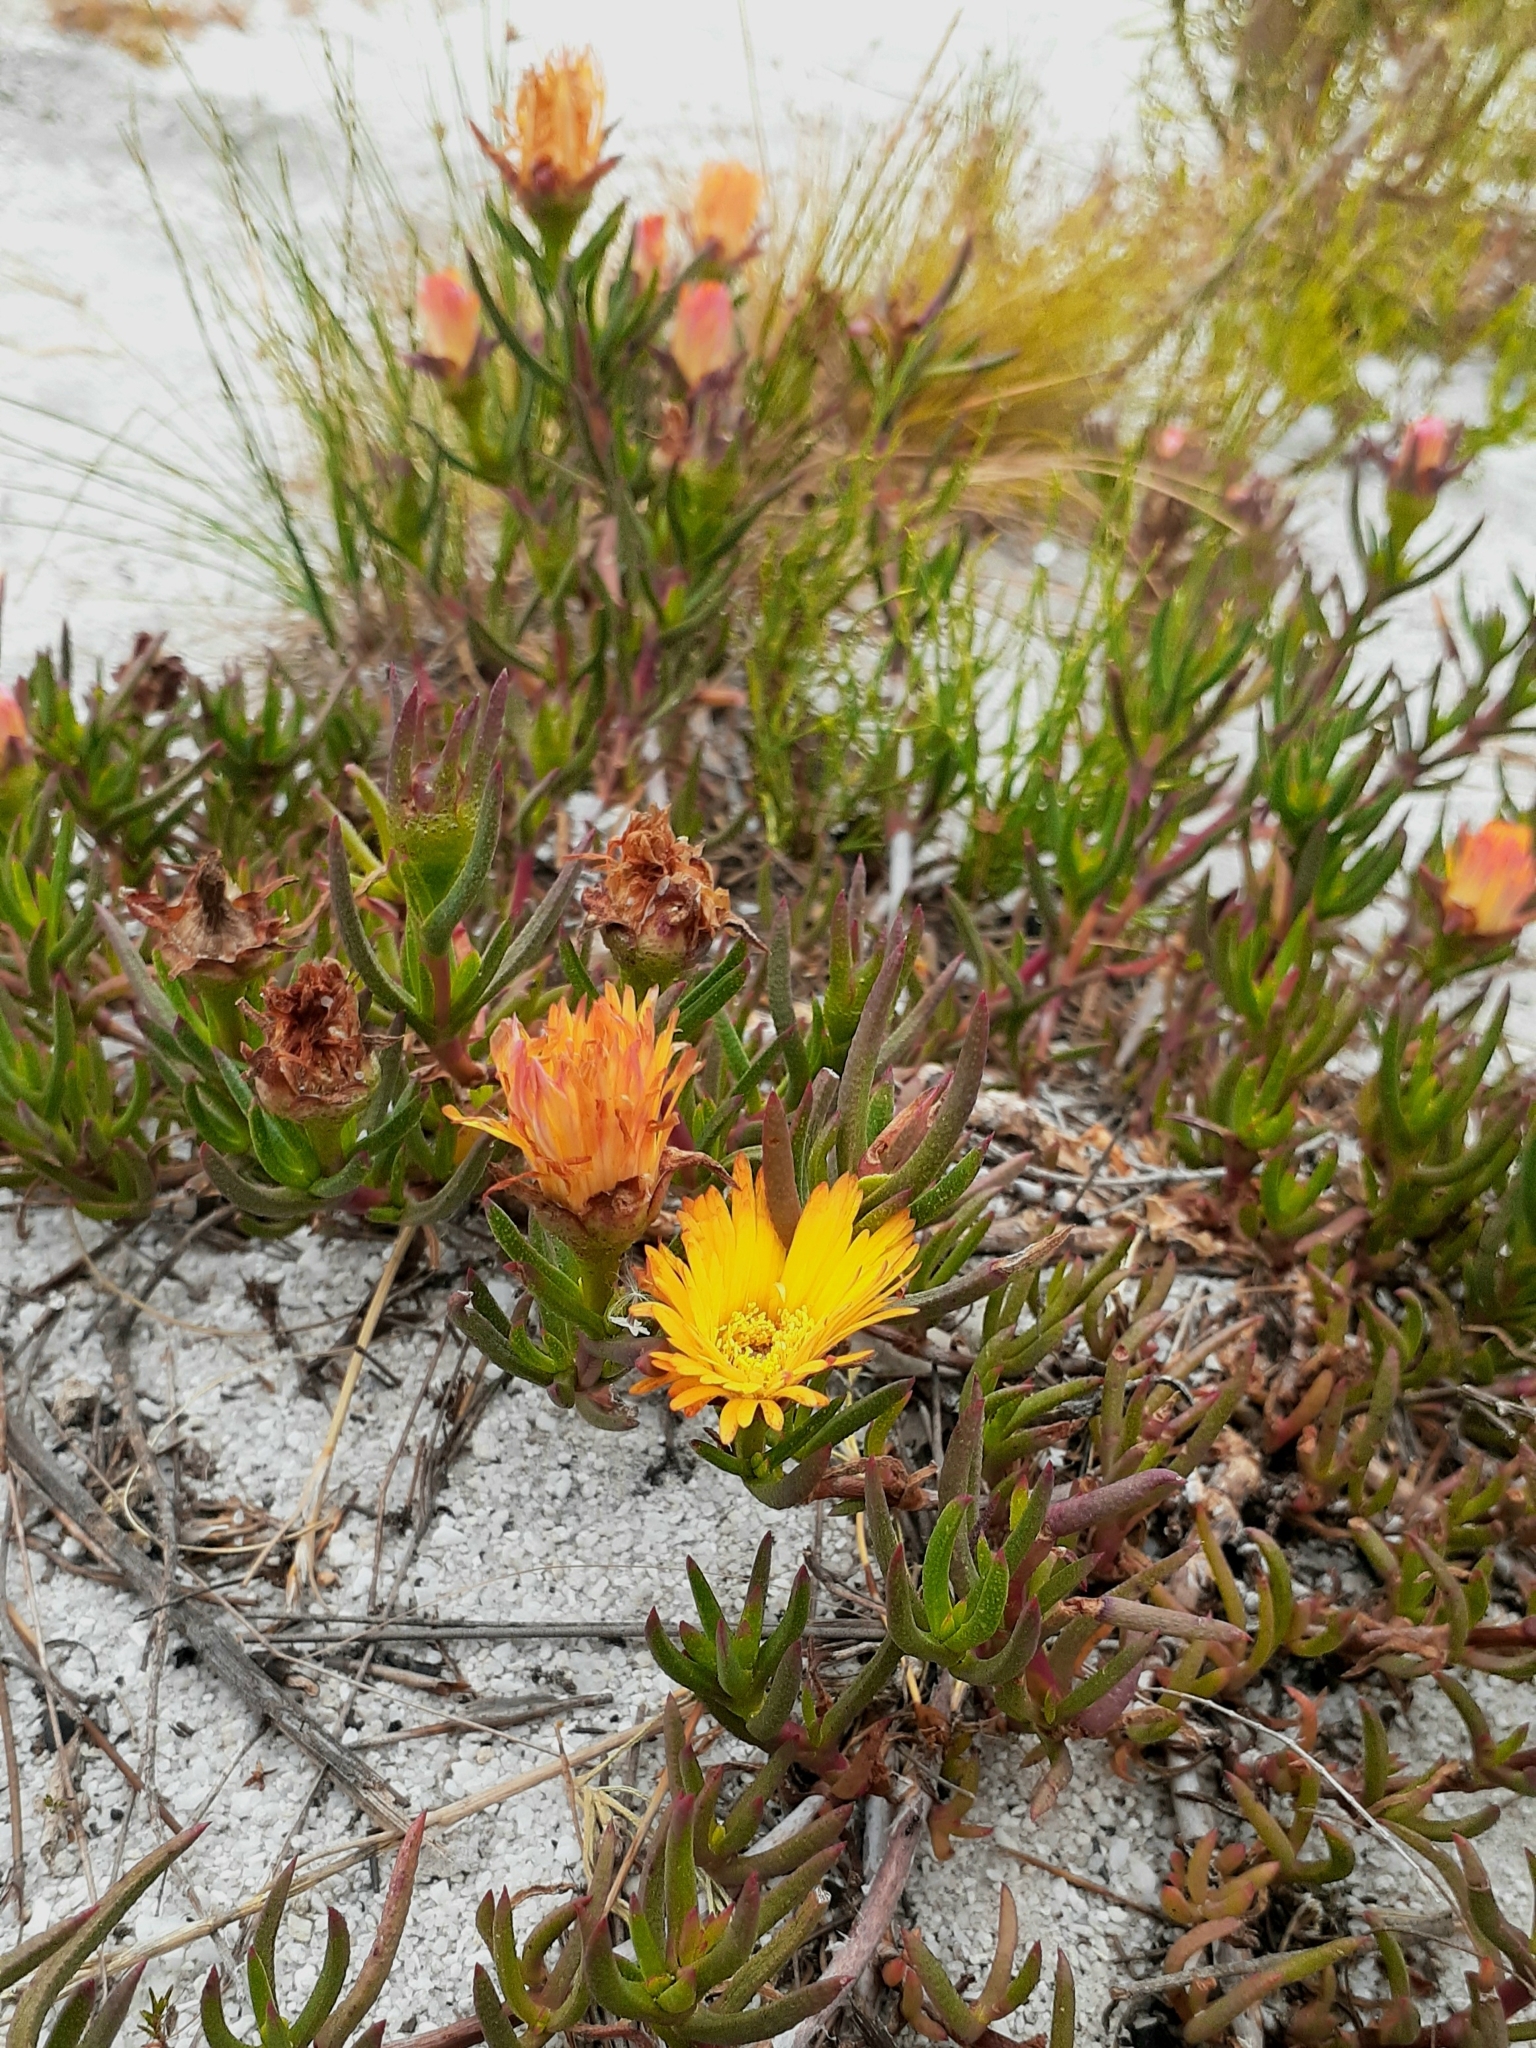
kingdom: Plantae
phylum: Tracheophyta
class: Magnoliopsida
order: Caryophyllales
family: Aizoaceae
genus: Lampranthus
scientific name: Lampranthus bicolor
